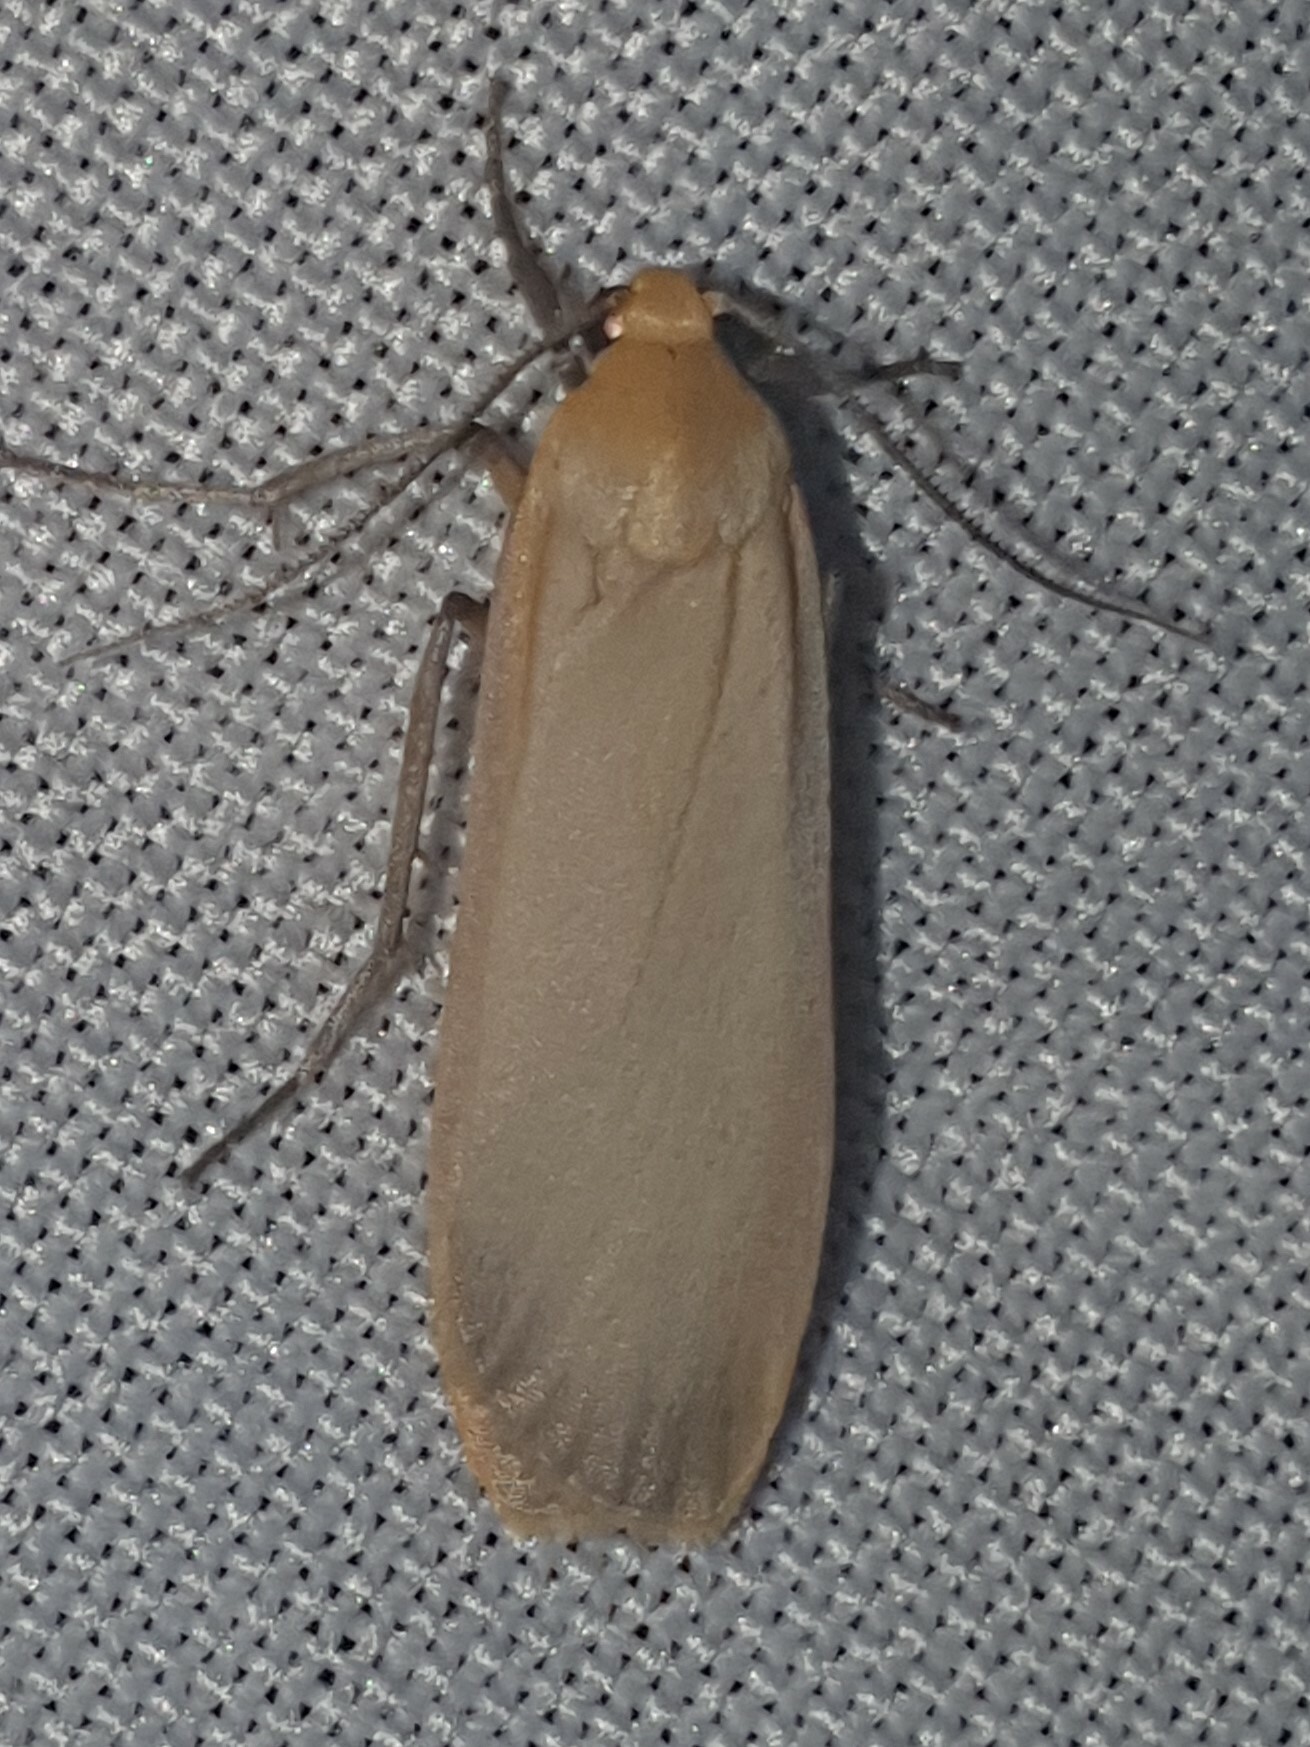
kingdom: Animalia
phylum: Arthropoda
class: Insecta
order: Lepidoptera
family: Erebidae
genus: Katha
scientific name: Katha depressa
